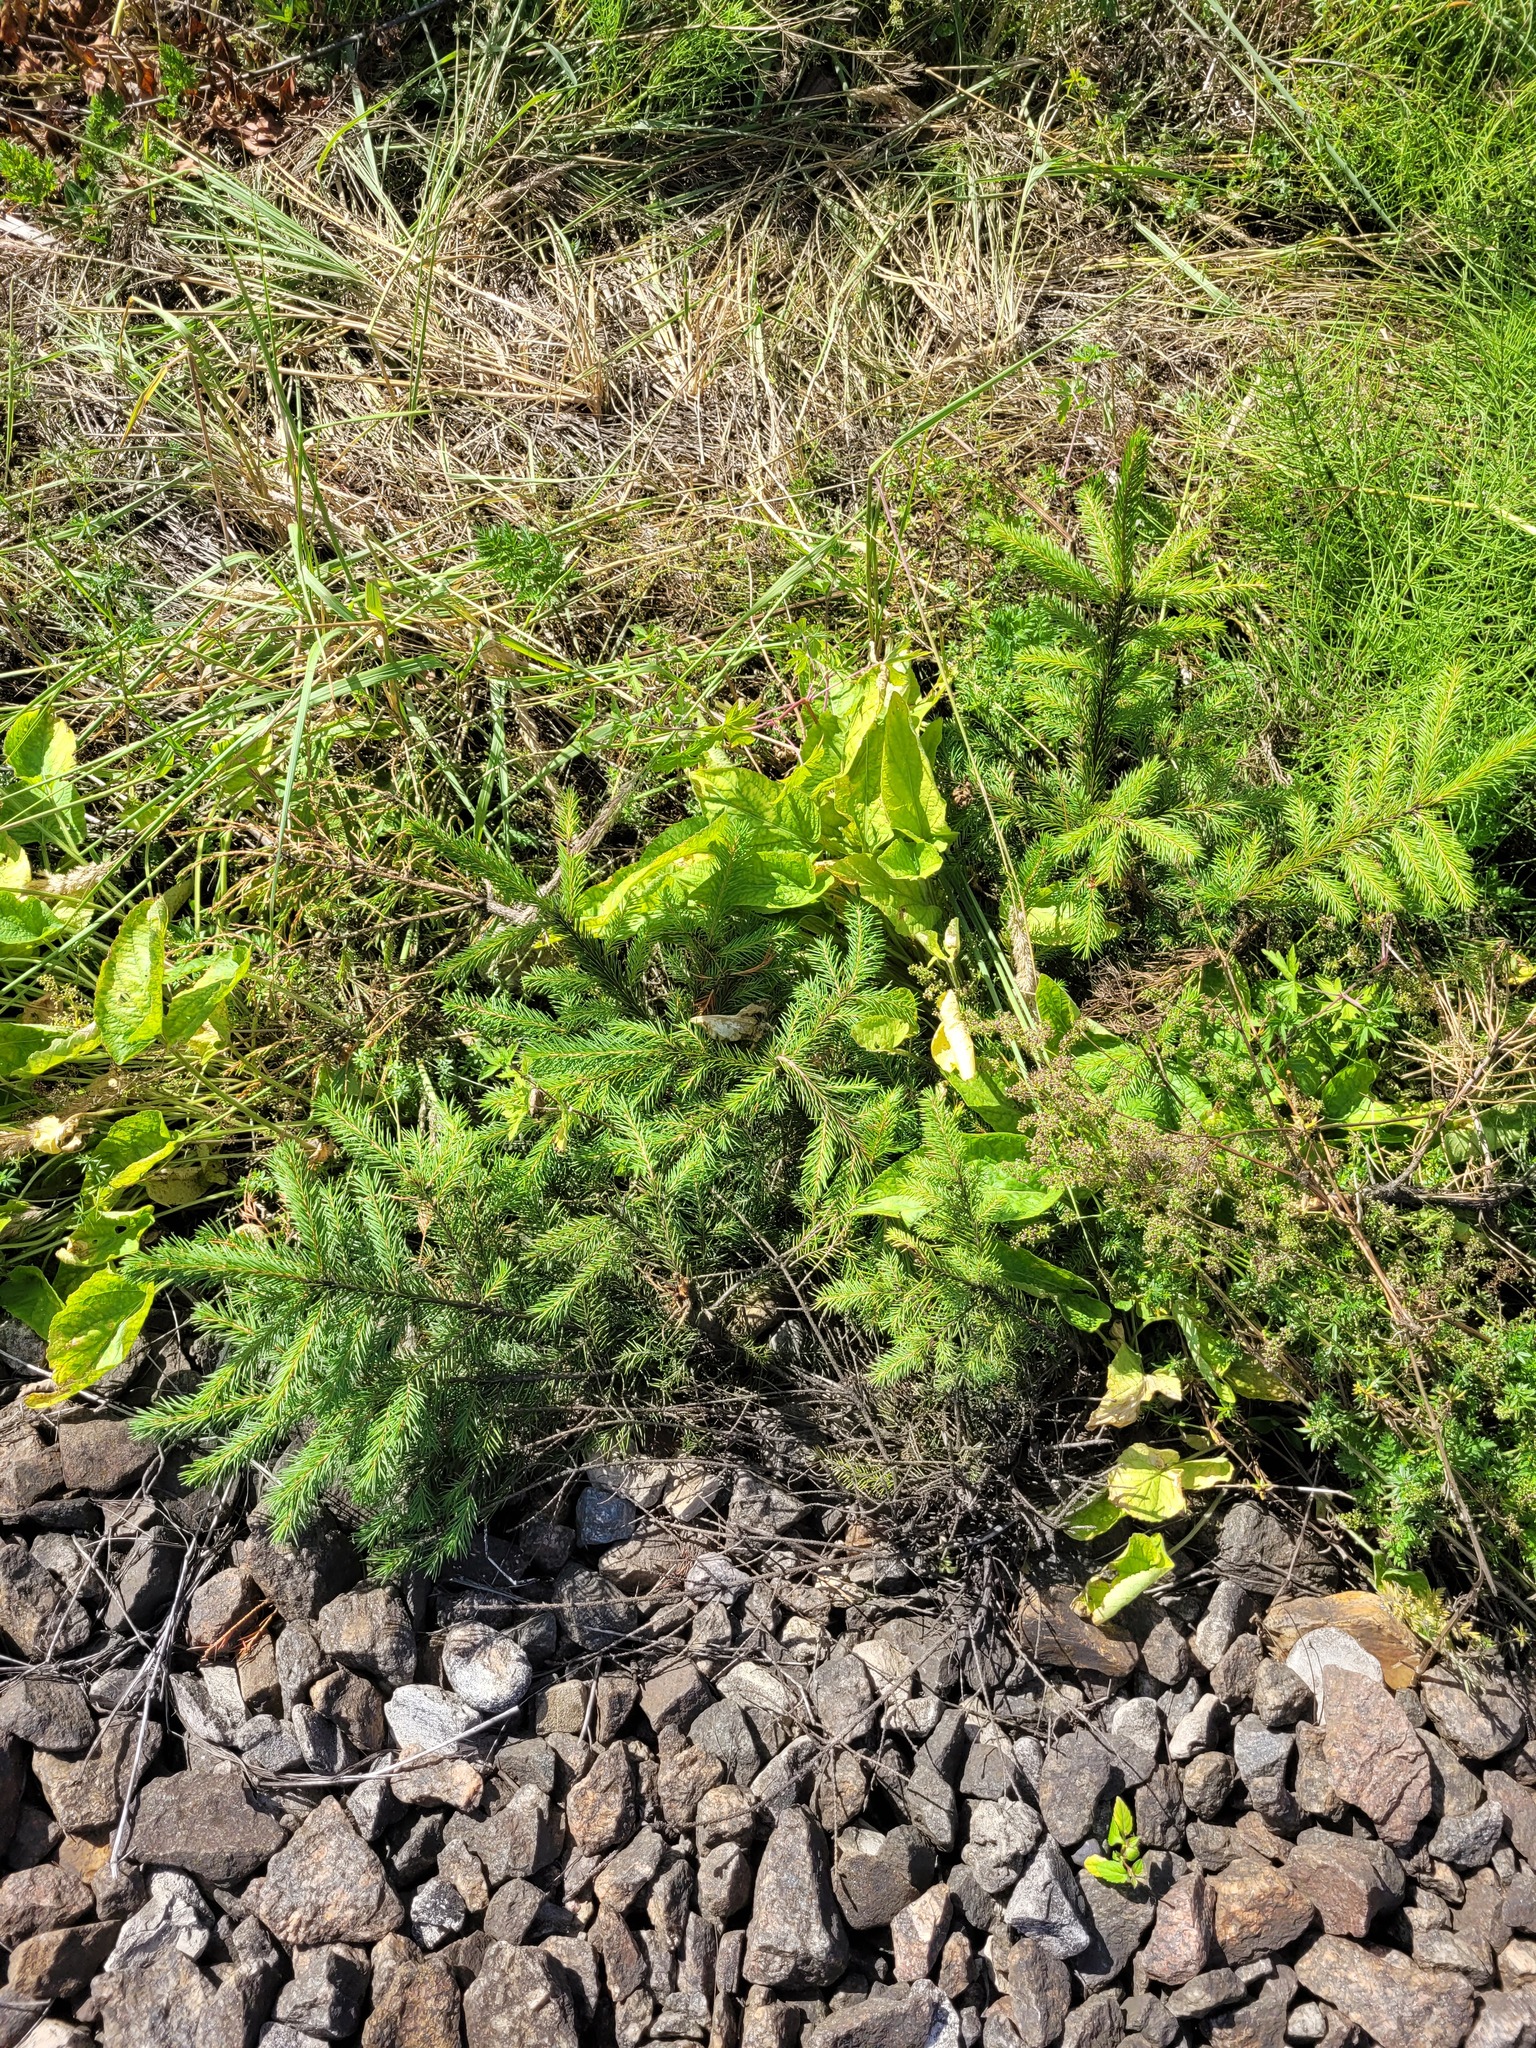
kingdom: Plantae
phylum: Tracheophyta
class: Pinopsida
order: Pinales
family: Pinaceae
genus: Picea
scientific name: Picea abies
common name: Norway spruce
